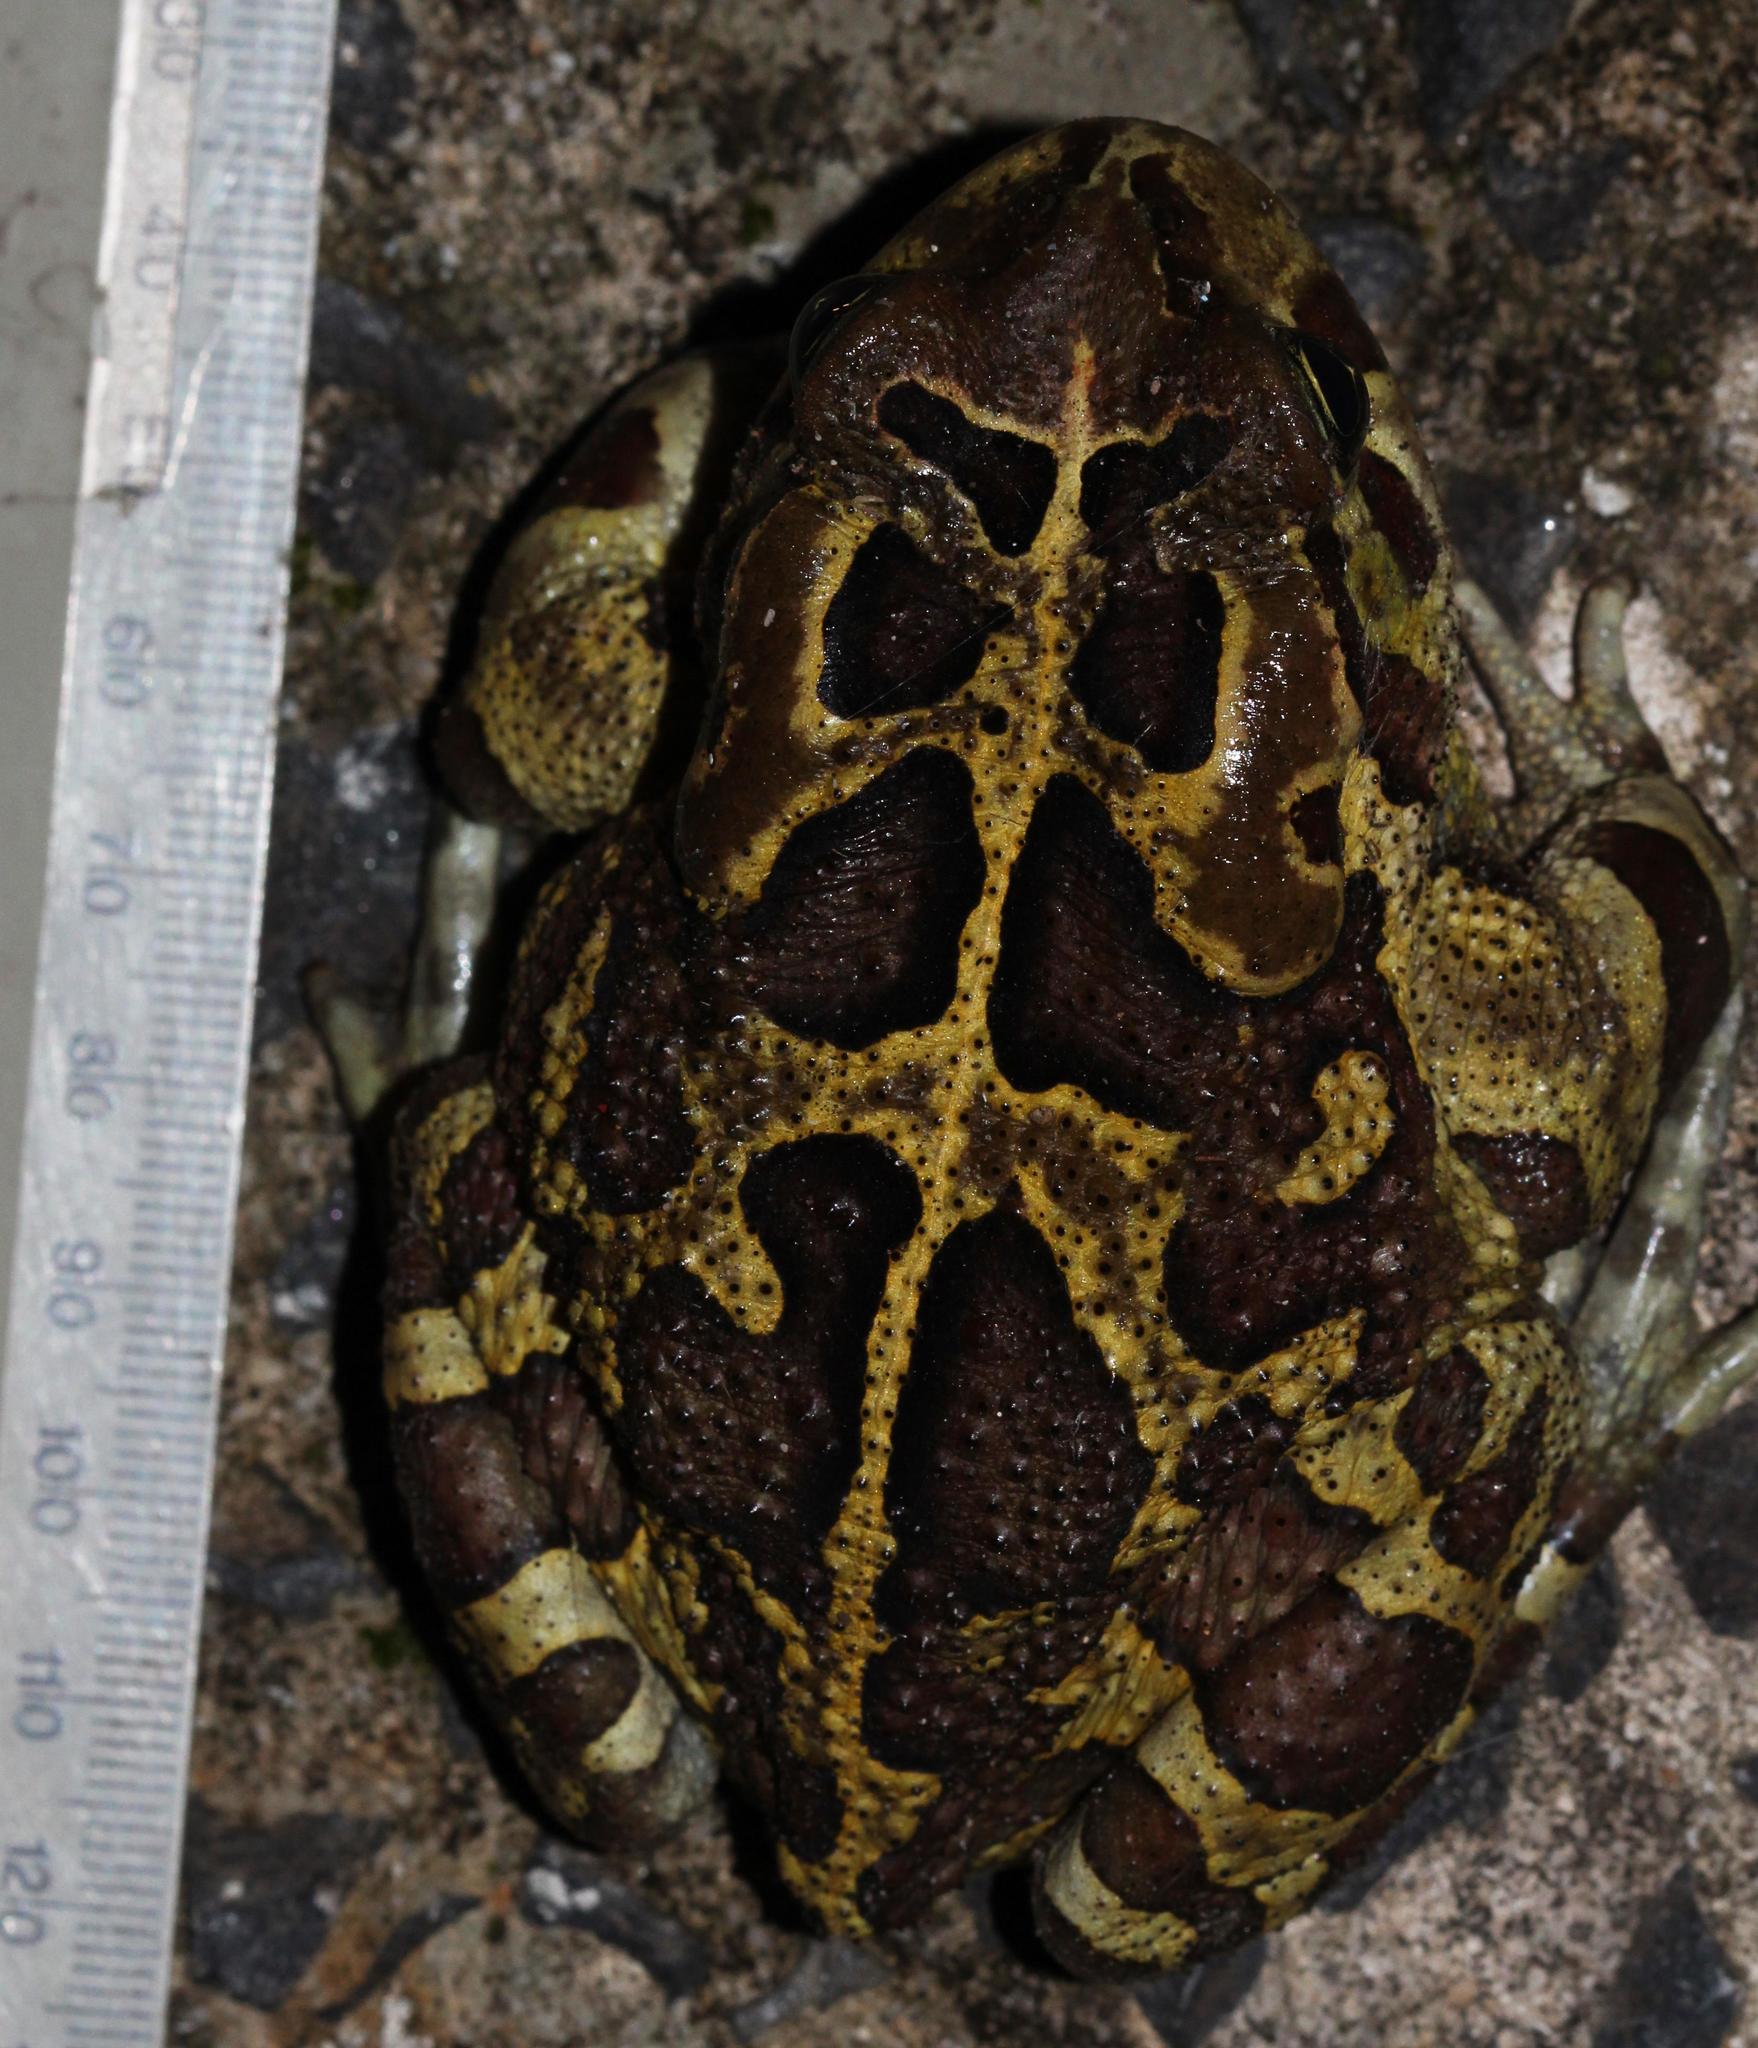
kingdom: Animalia
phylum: Chordata
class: Amphibia
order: Anura
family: Bufonidae
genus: Sclerophrys
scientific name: Sclerophrys pantherina
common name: Panther toad
